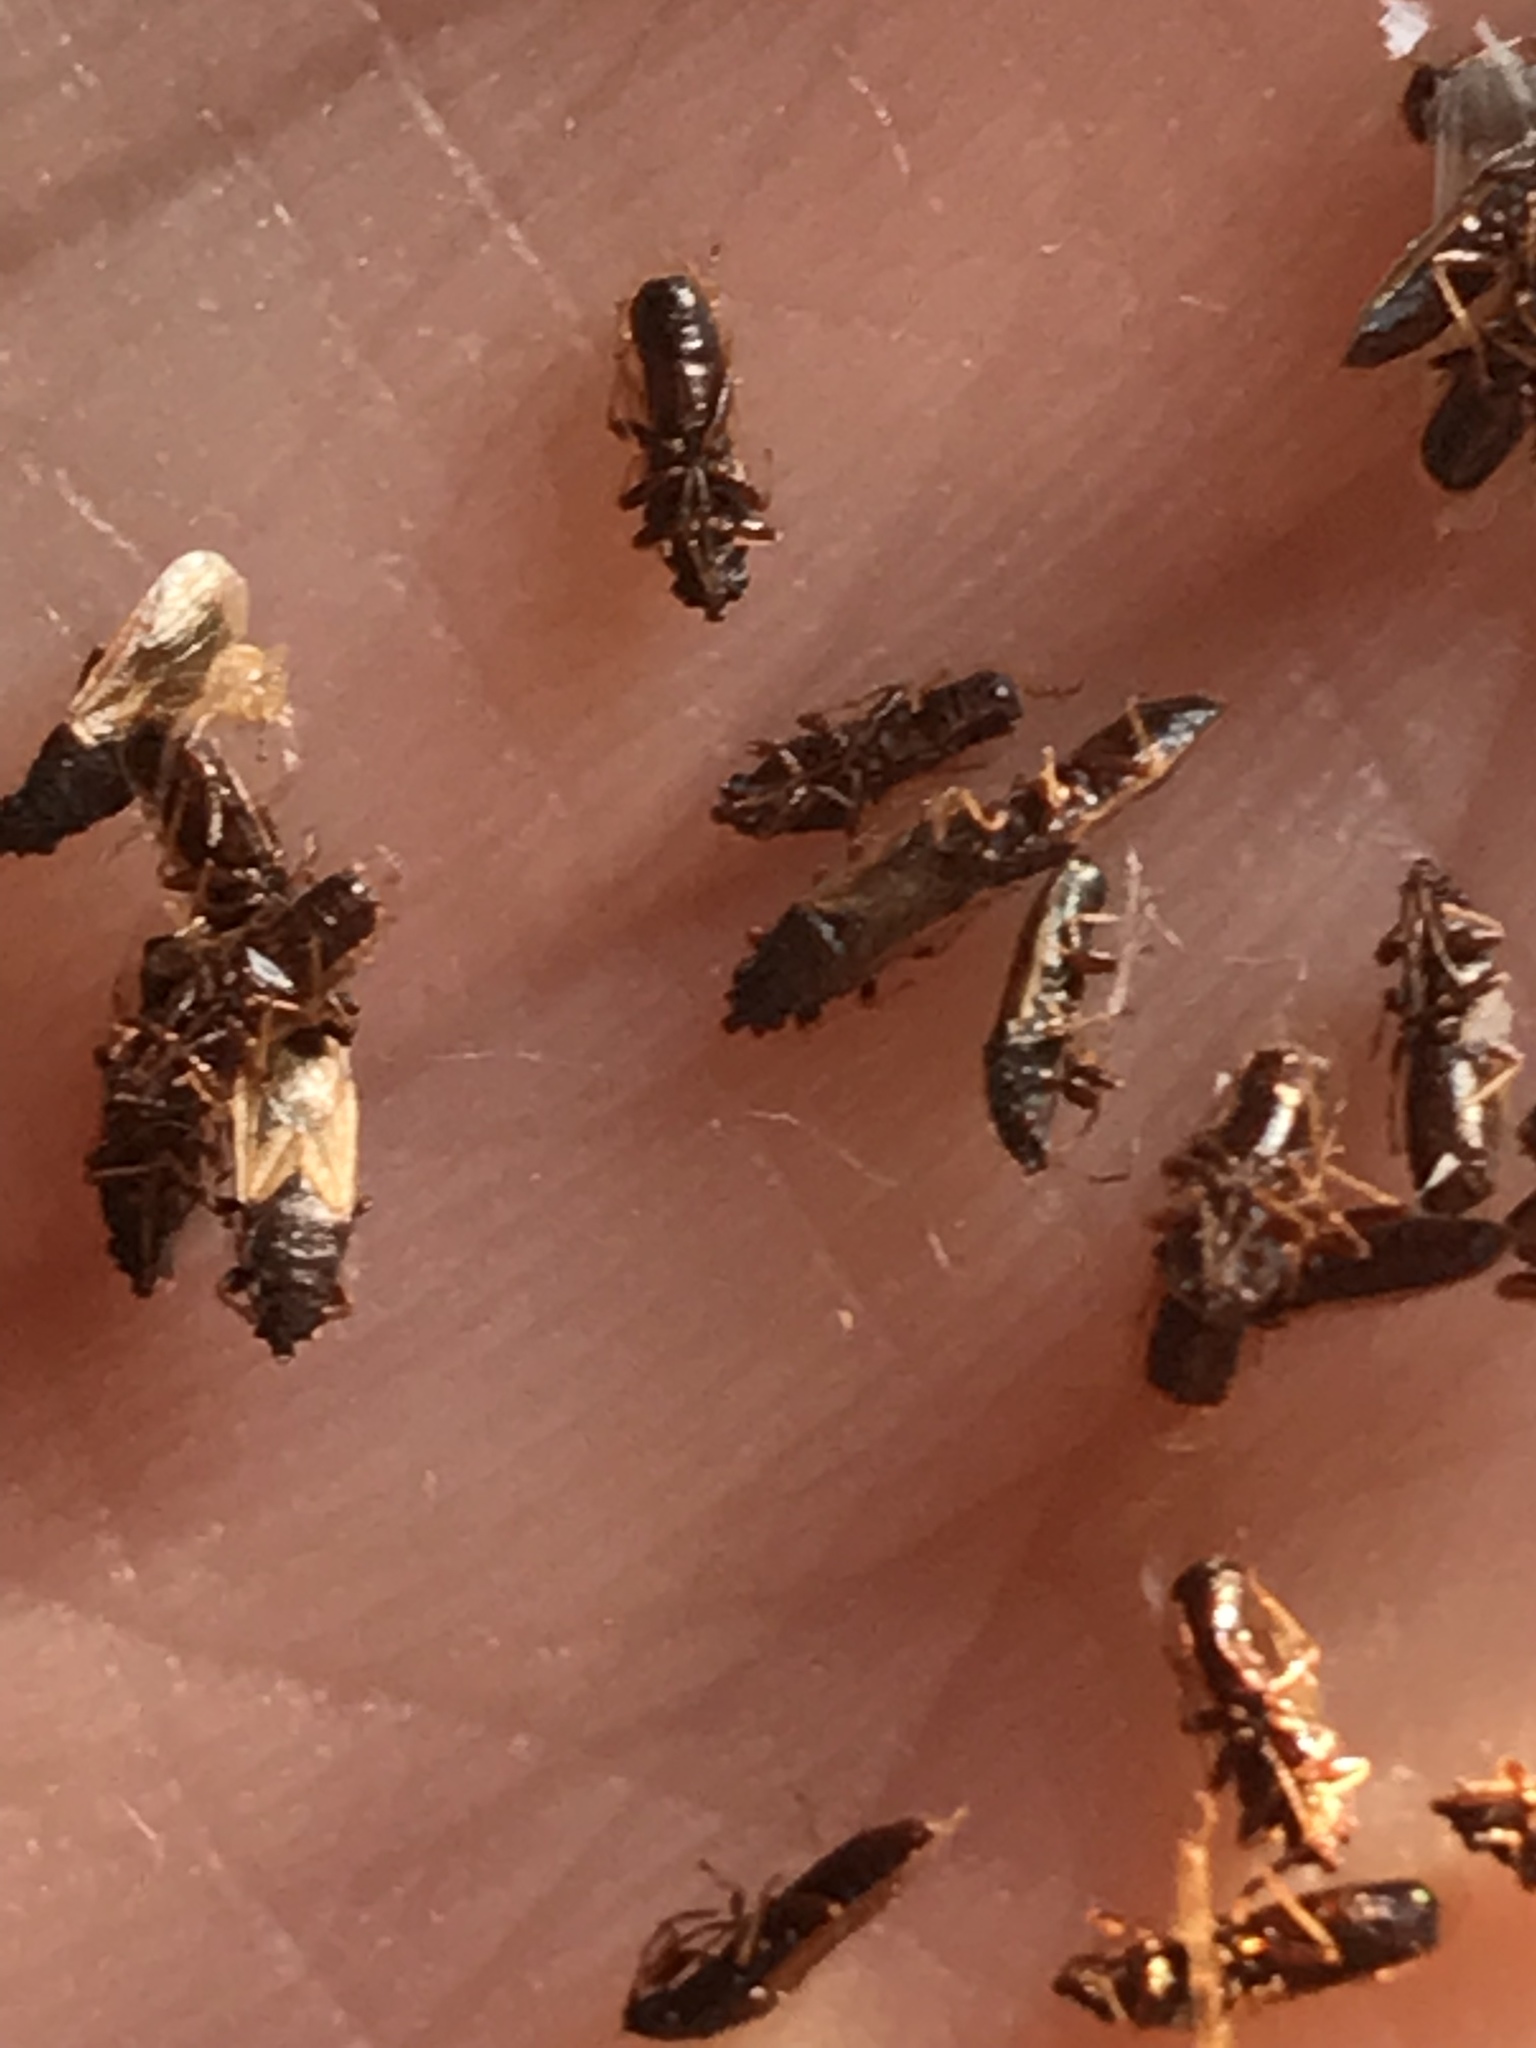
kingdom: Animalia
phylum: Arthropoda
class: Insecta
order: Hemiptera
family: Oxycarenidae
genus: Metopoplax
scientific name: Metopoplax ditomoides
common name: Seed bug
